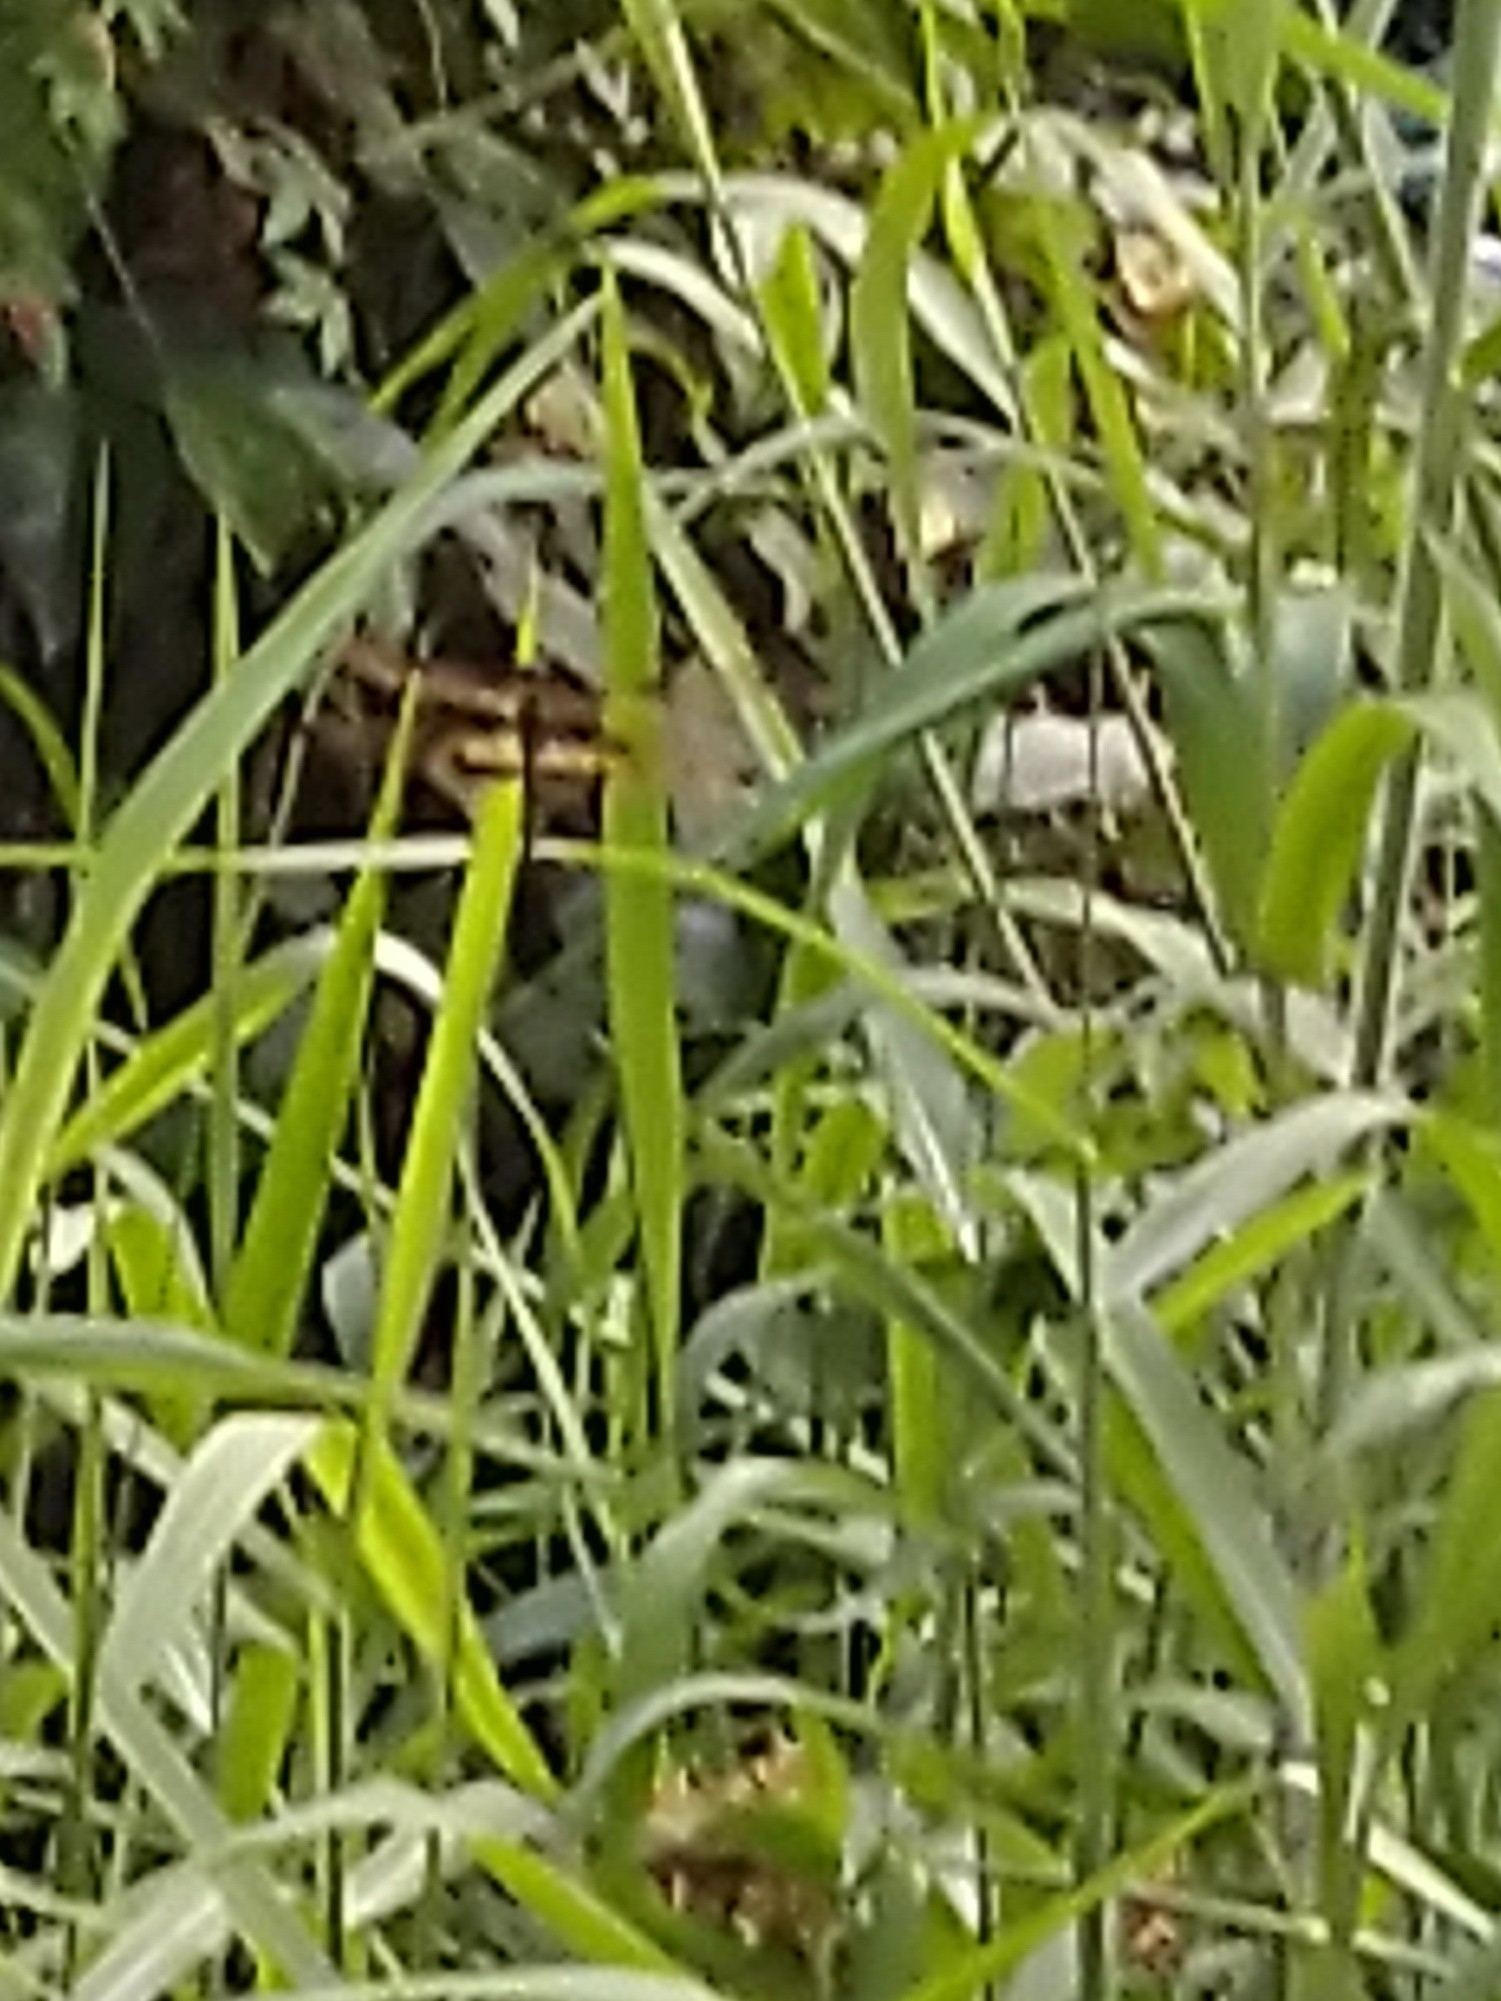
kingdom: Animalia
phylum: Arthropoda
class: Insecta
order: Odonata
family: Libellulidae
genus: Rhyothemis
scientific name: Rhyothemis variegata
